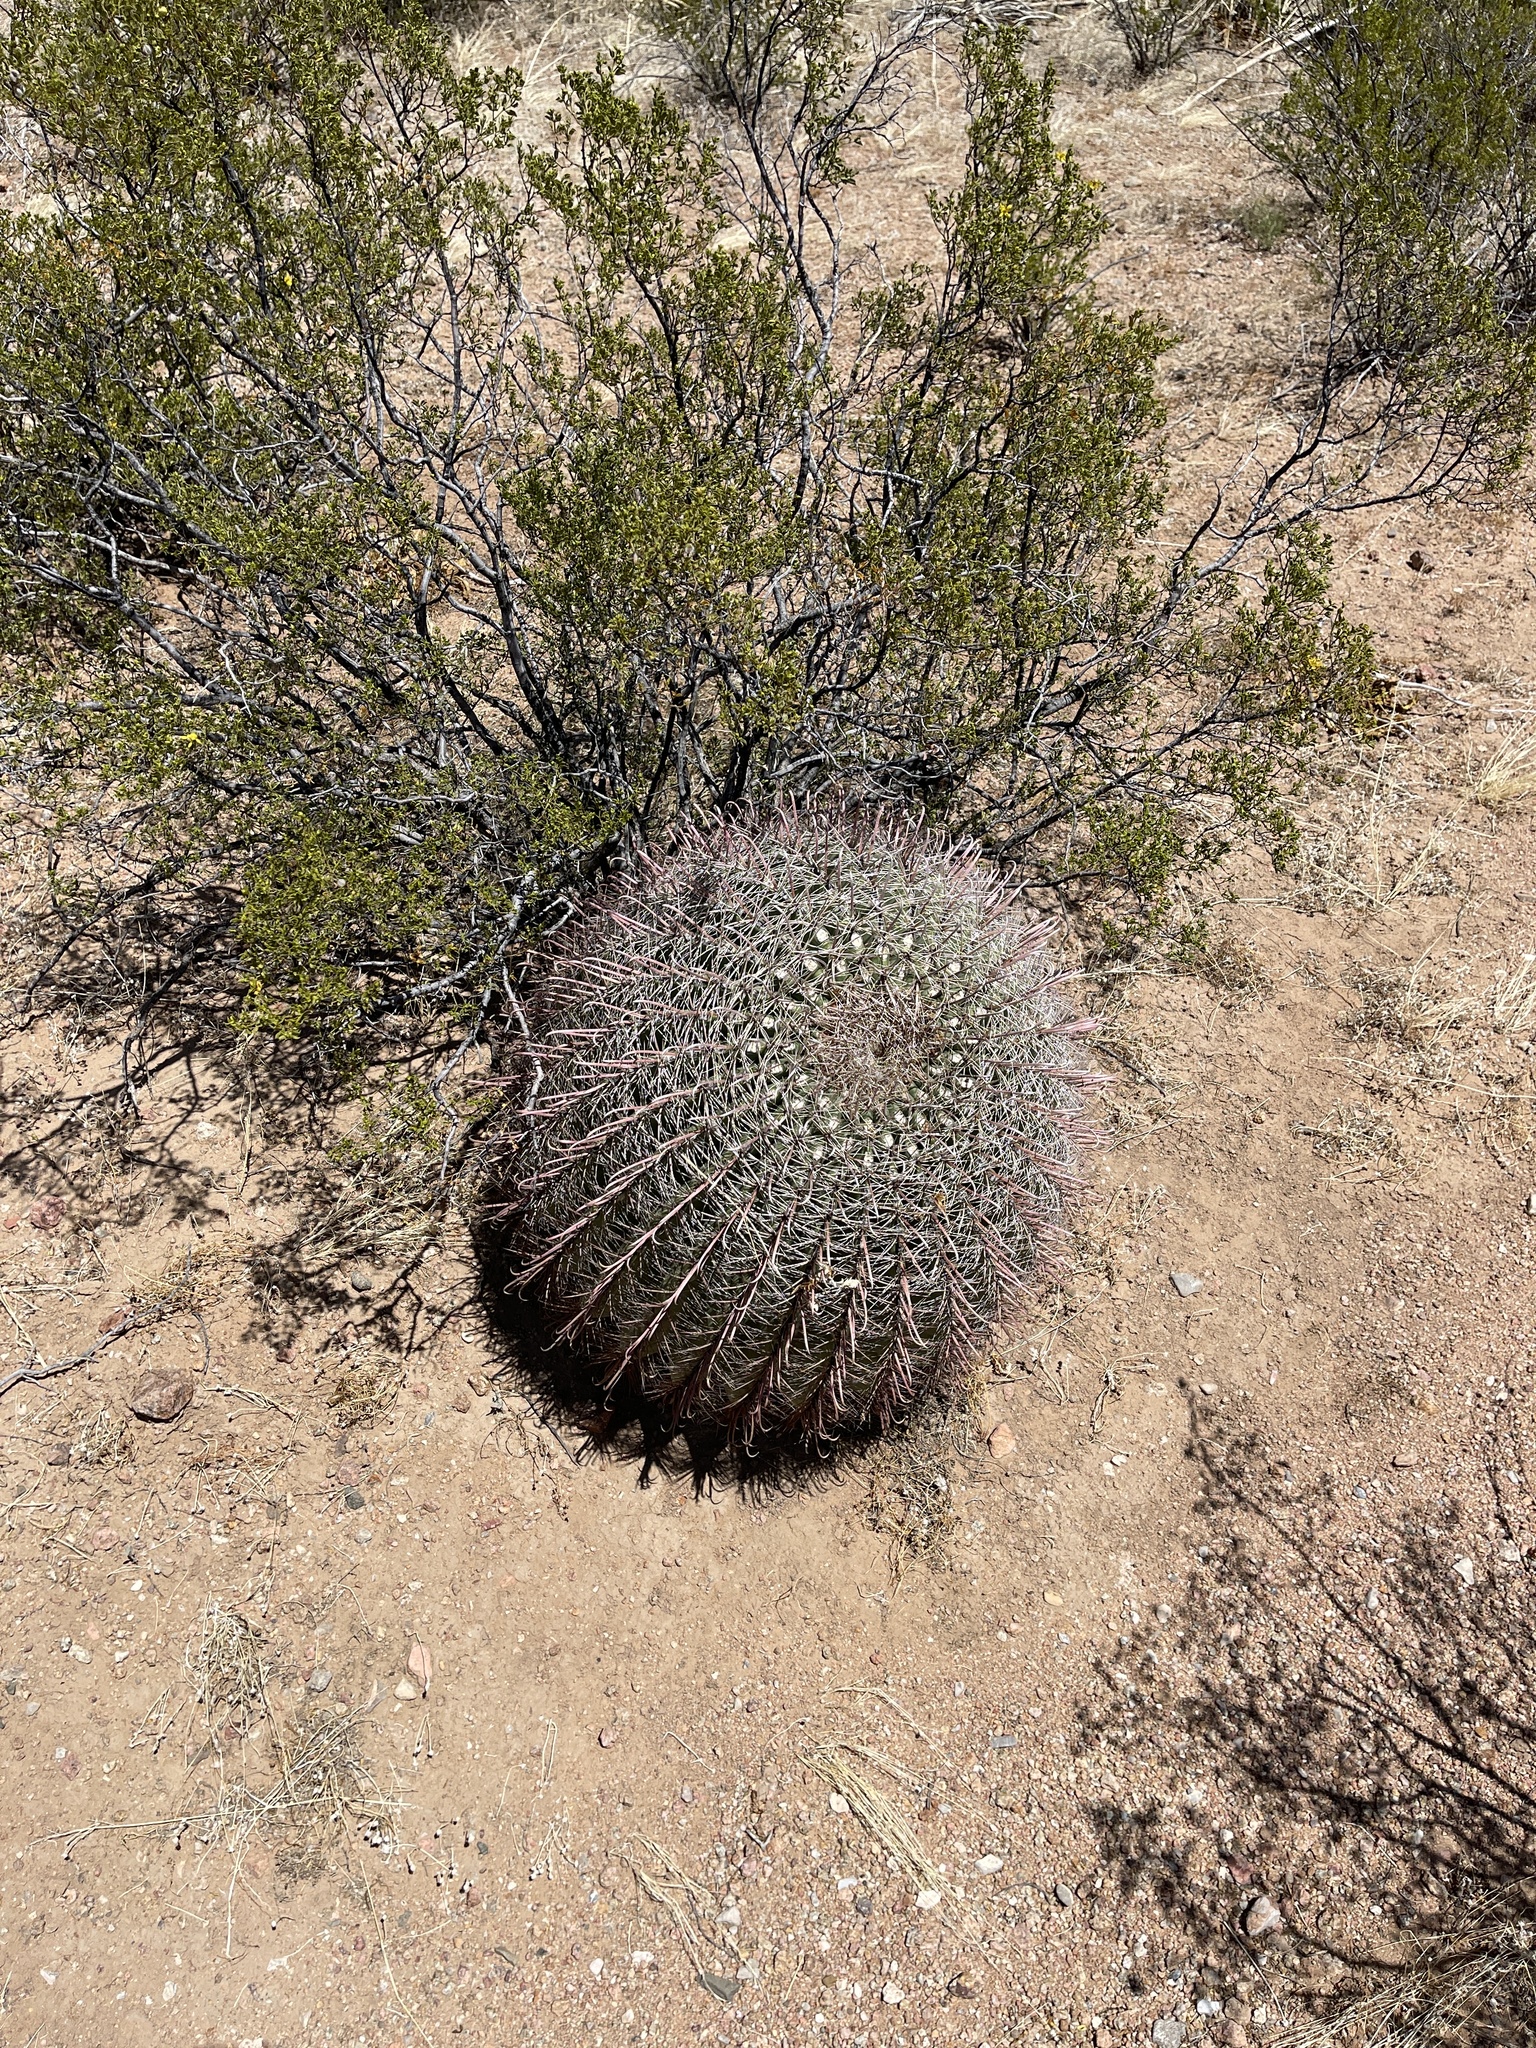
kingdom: Plantae
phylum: Tracheophyta
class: Magnoliopsida
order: Caryophyllales
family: Cactaceae
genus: Ferocactus
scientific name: Ferocactus wislizeni
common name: Candy barrel cactus
